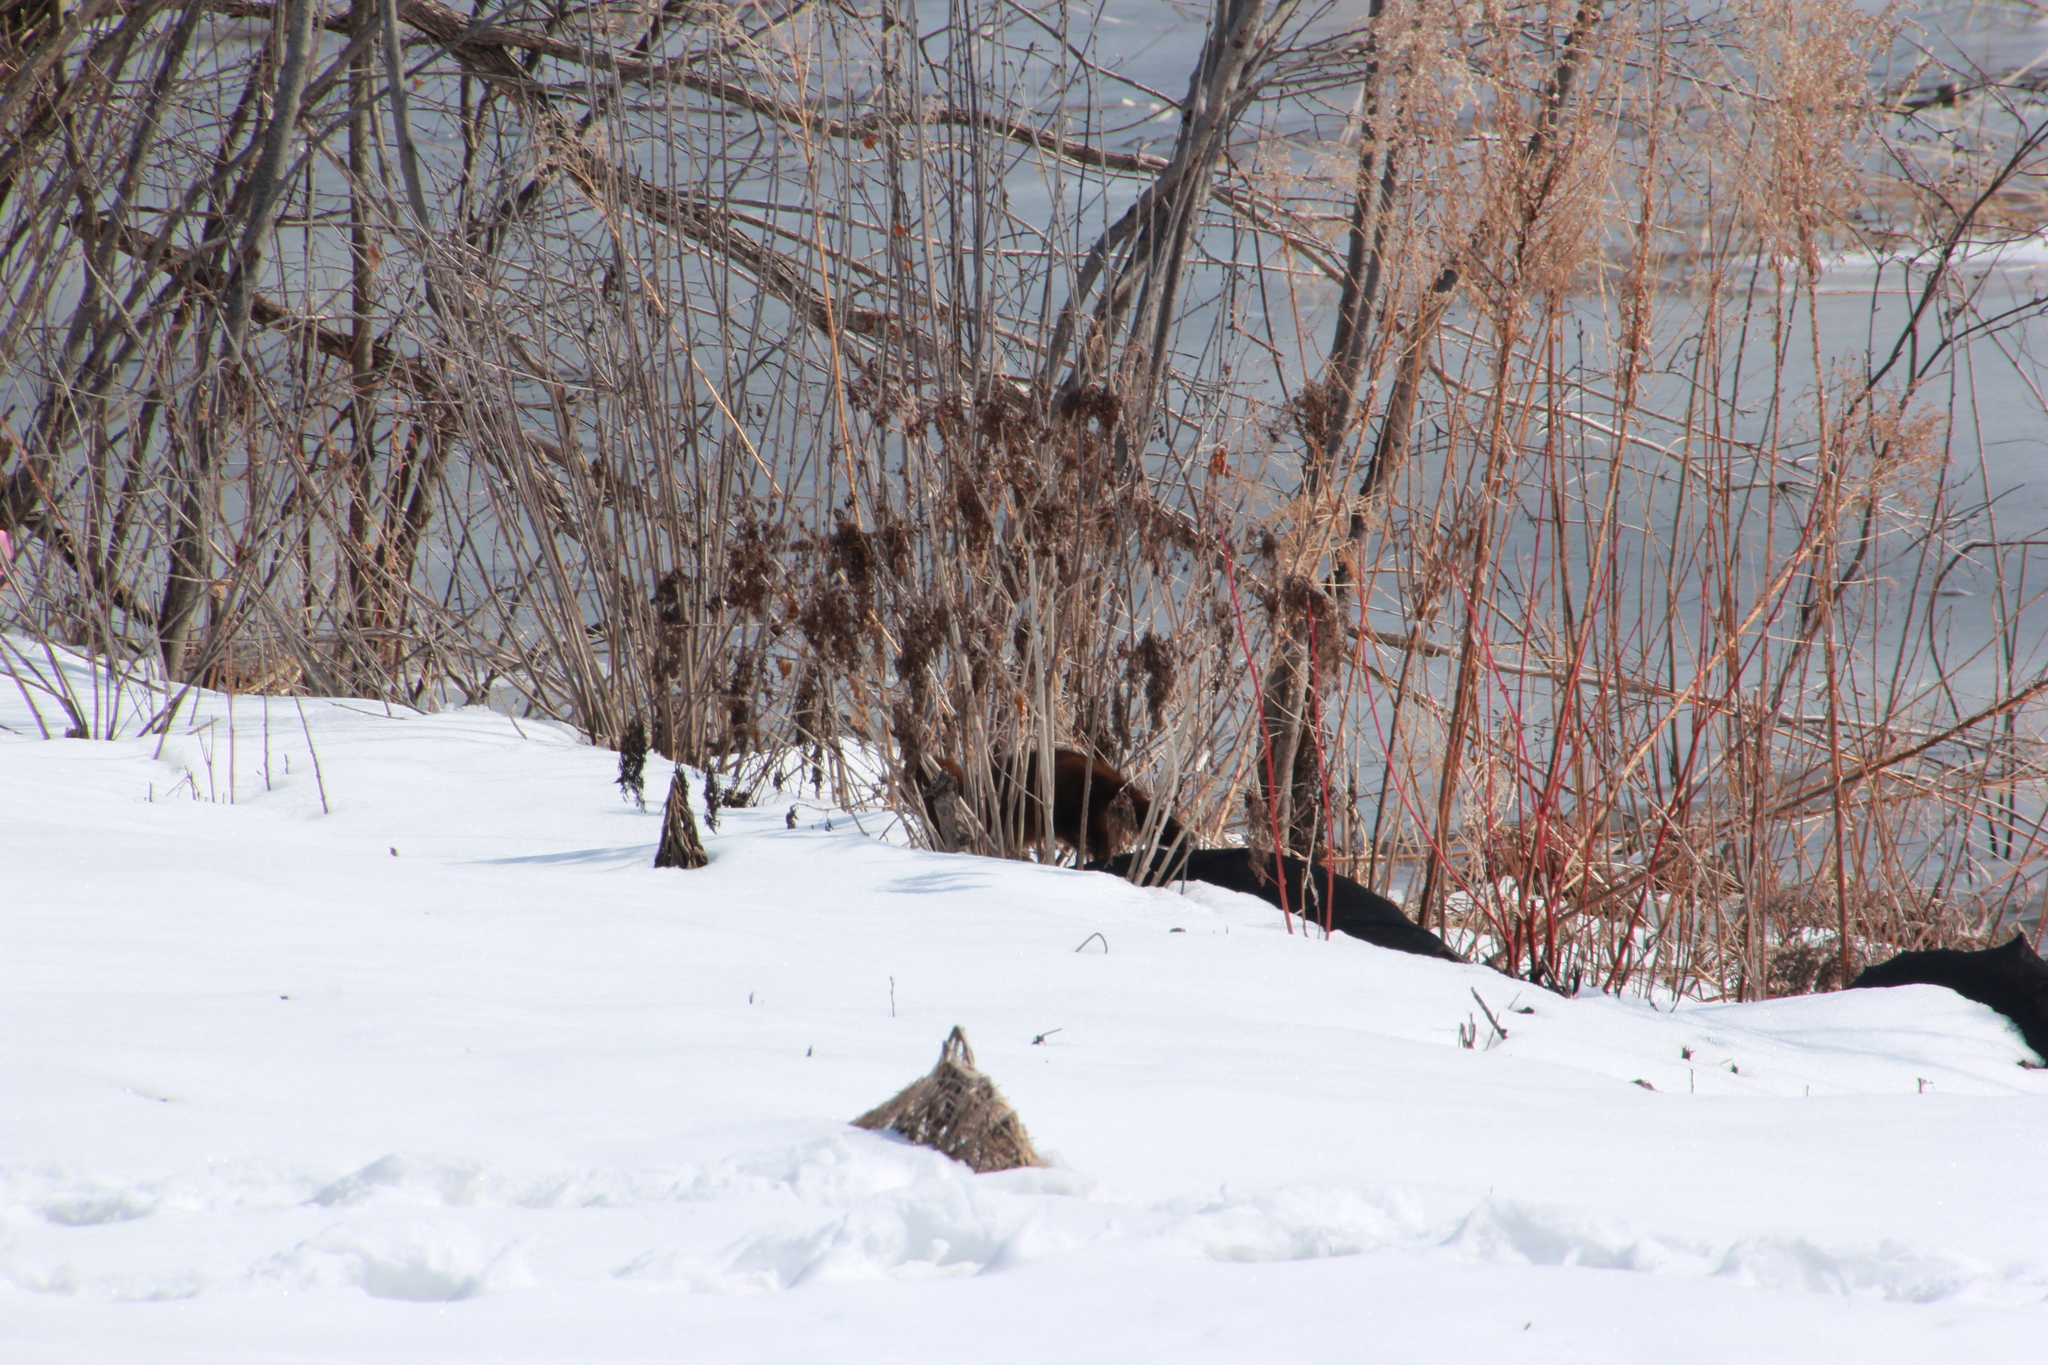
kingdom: Animalia
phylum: Chordata
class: Mammalia
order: Carnivora
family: Mustelidae
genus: Mustela
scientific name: Mustela
